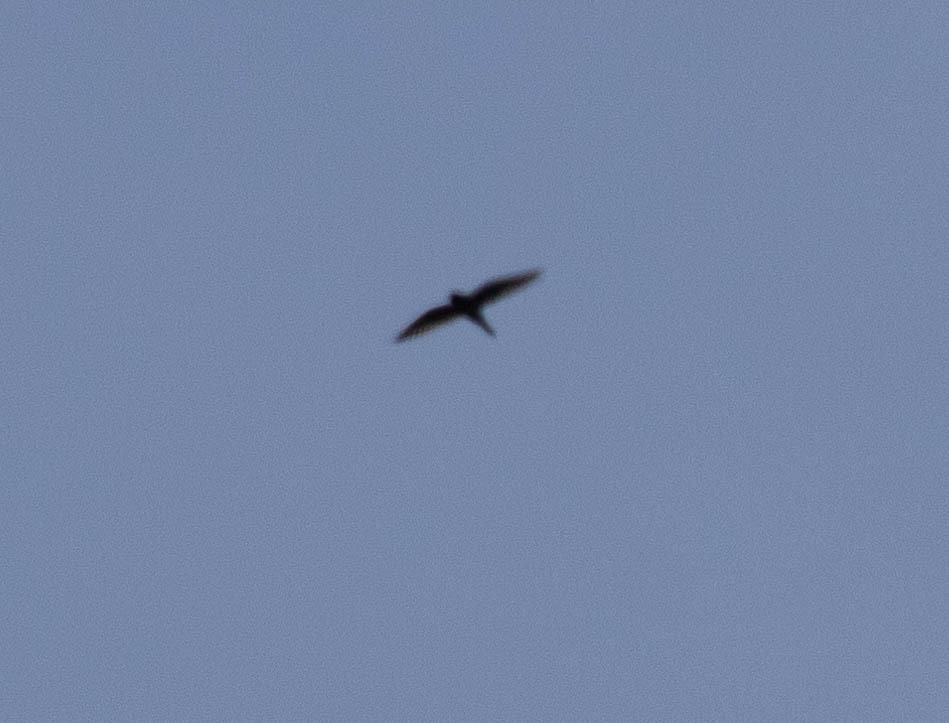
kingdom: Animalia
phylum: Chordata
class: Aves
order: Falconiformes
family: Falconidae
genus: Falco
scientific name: Falco sparverius
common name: American kestrel
